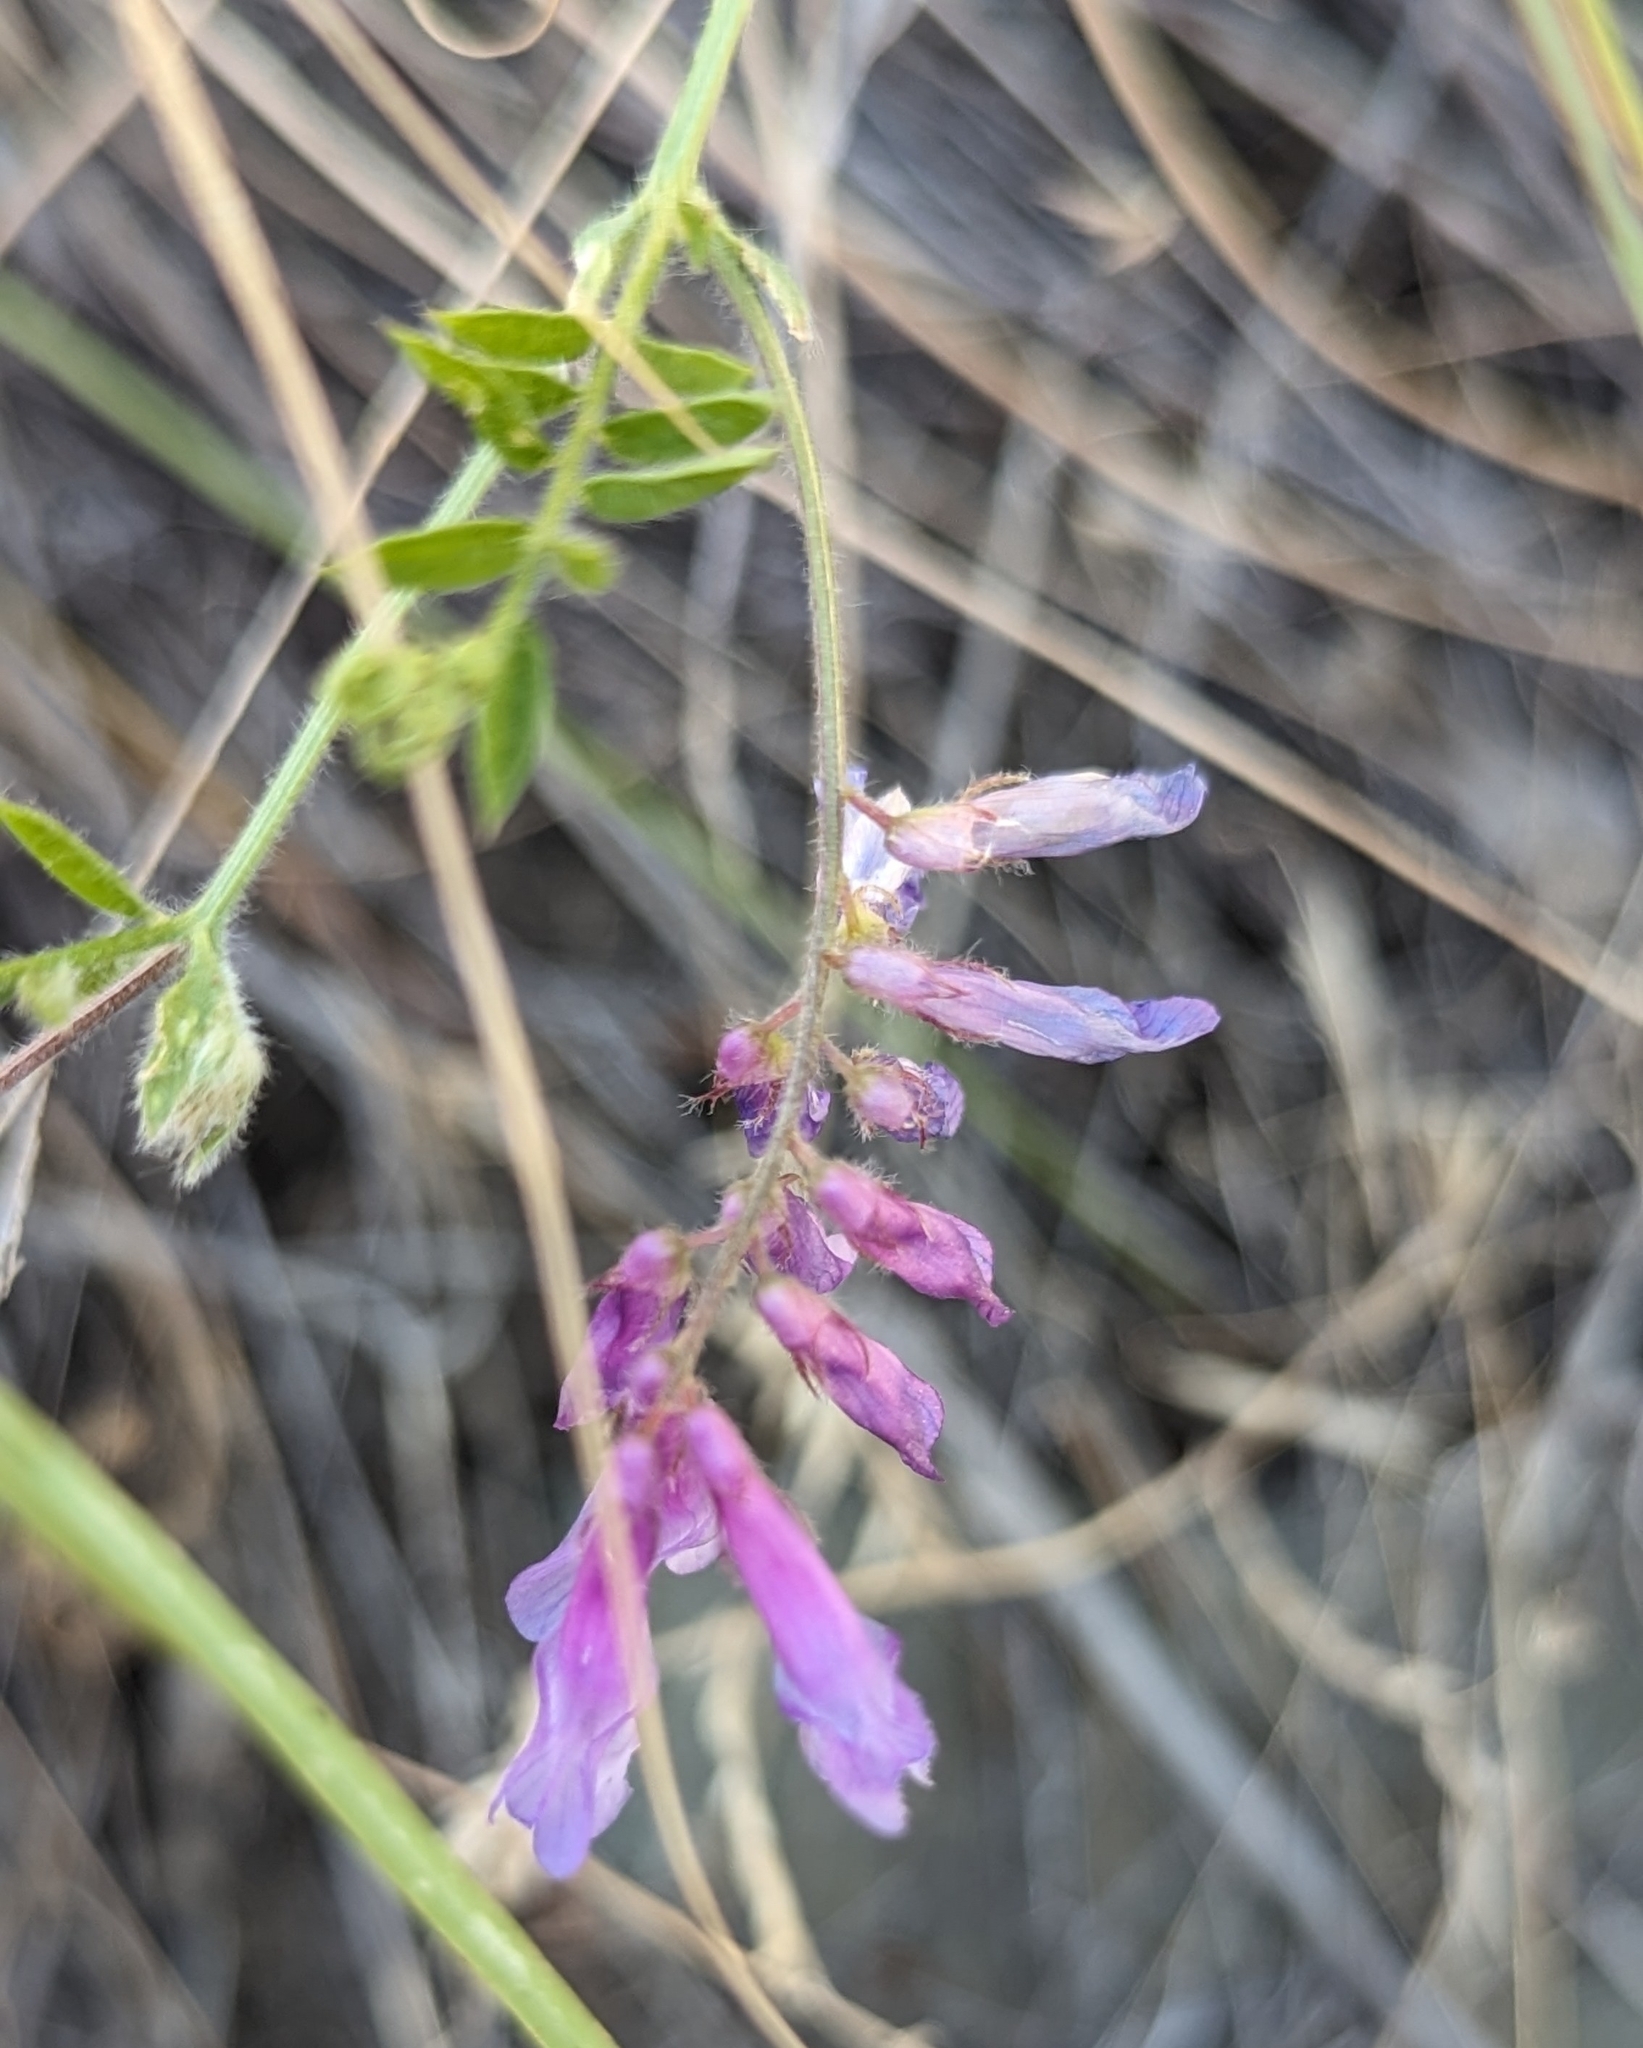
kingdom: Plantae
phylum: Tracheophyta
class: Magnoliopsida
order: Fabales
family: Fabaceae
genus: Vicia
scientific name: Vicia villosa
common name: Fodder vetch
